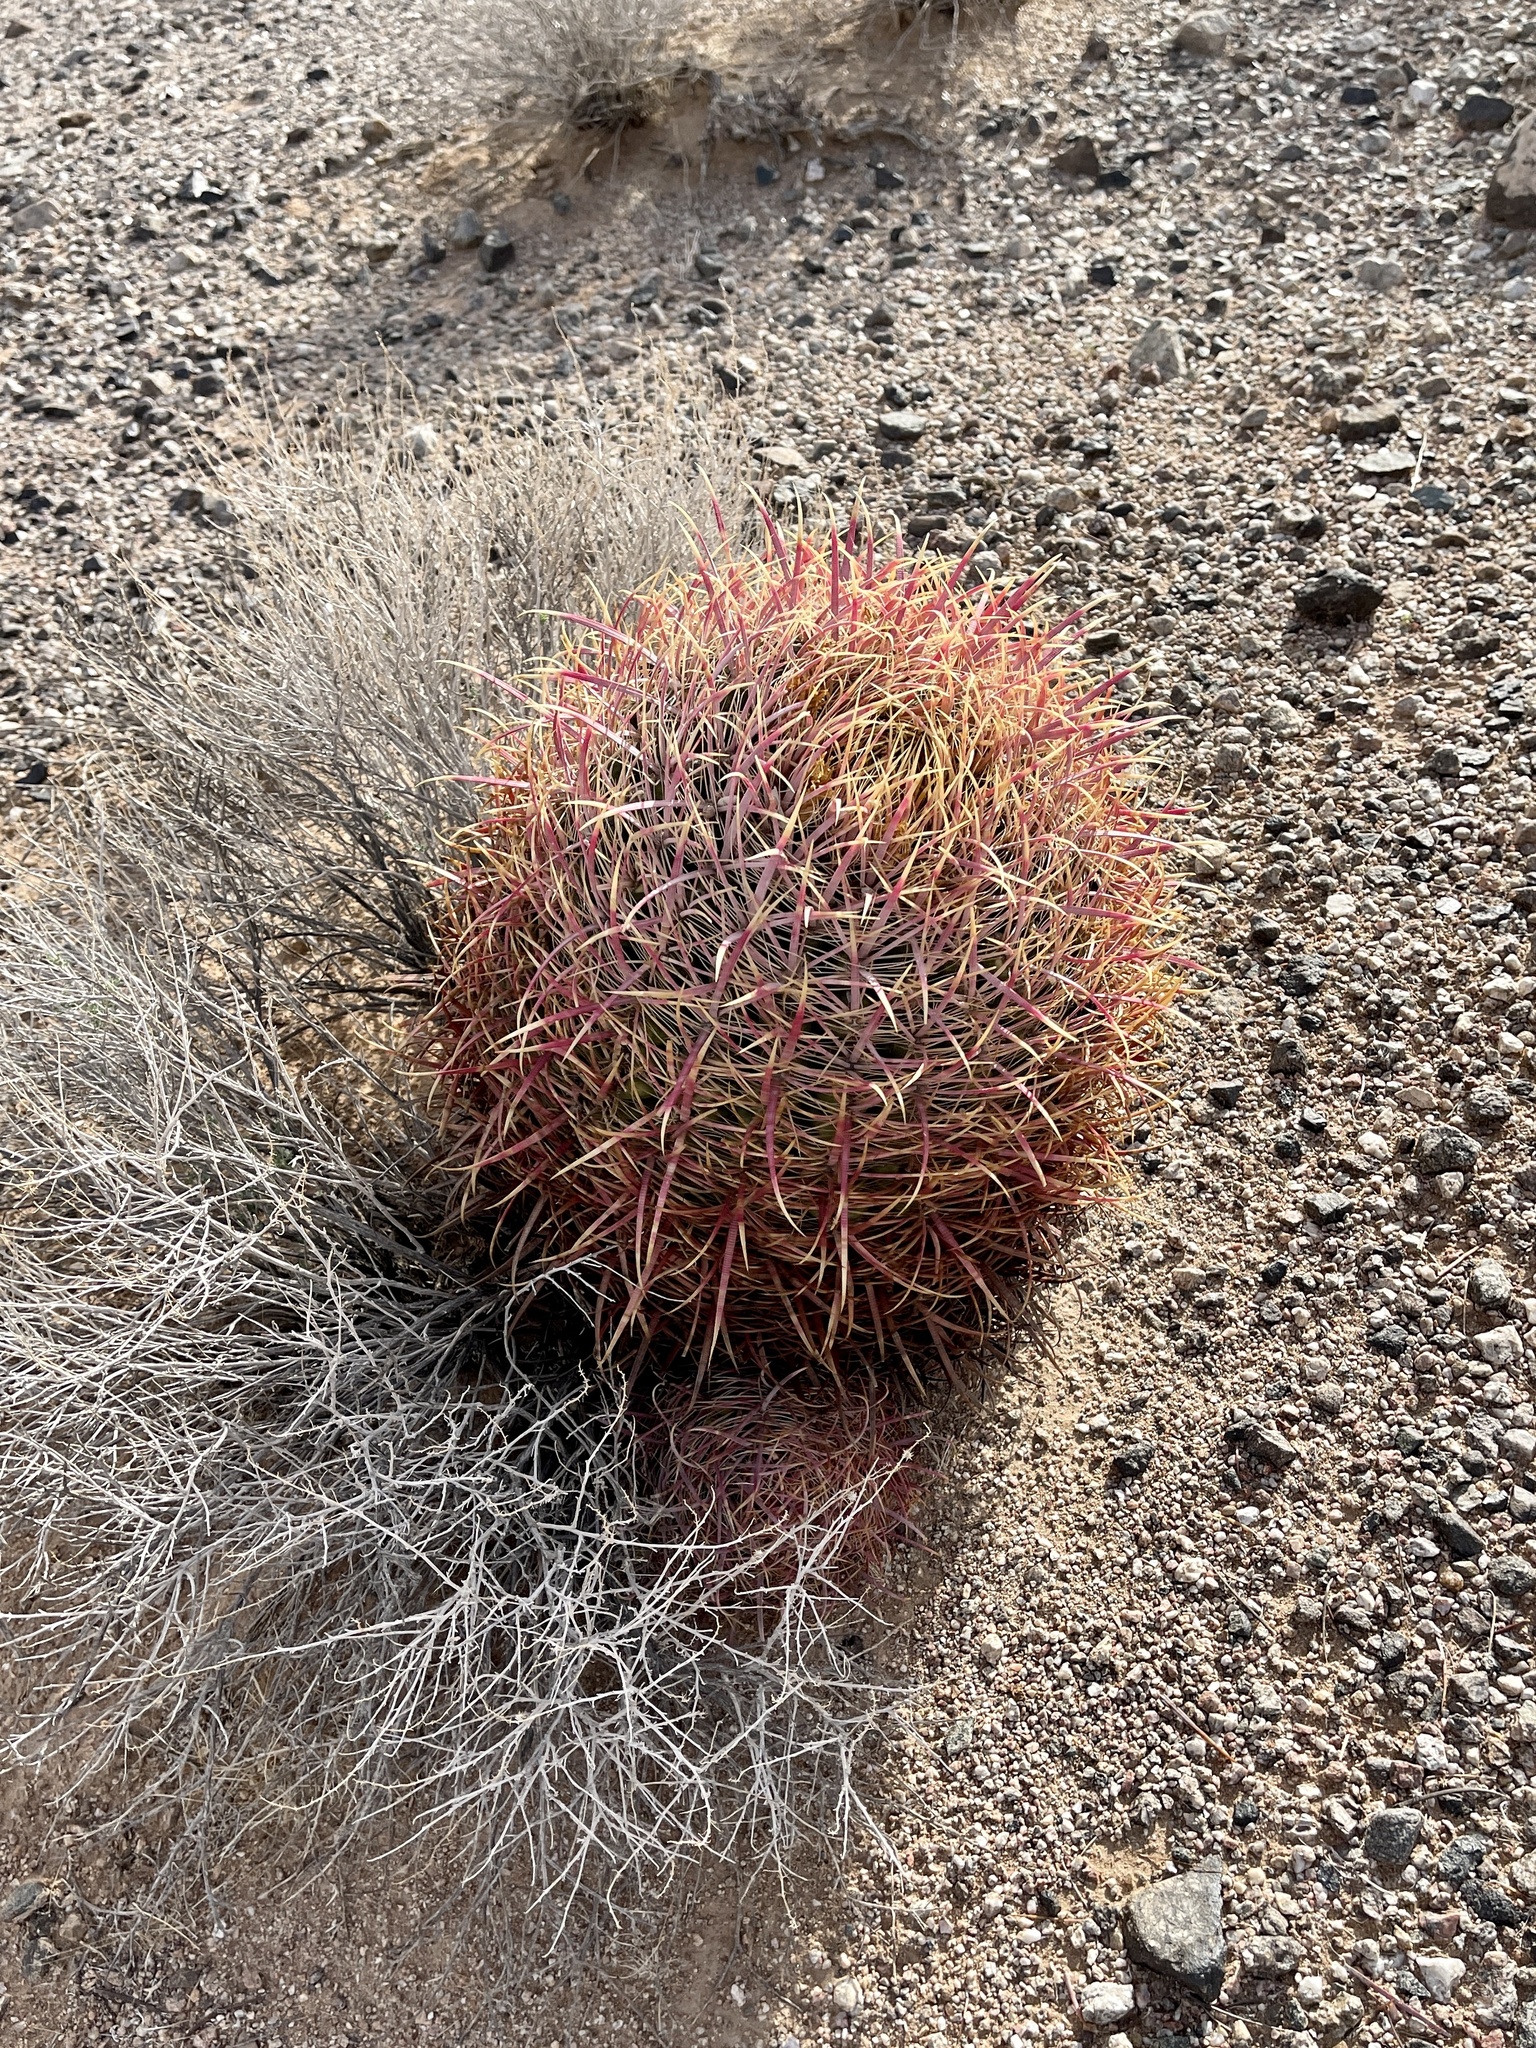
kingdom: Plantae
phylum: Tracheophyta
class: Magnoliopsida
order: Caryophyllales
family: Cactaceae
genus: Ferocactus
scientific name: Ferocactus cylindraceus
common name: California barrel cactus
